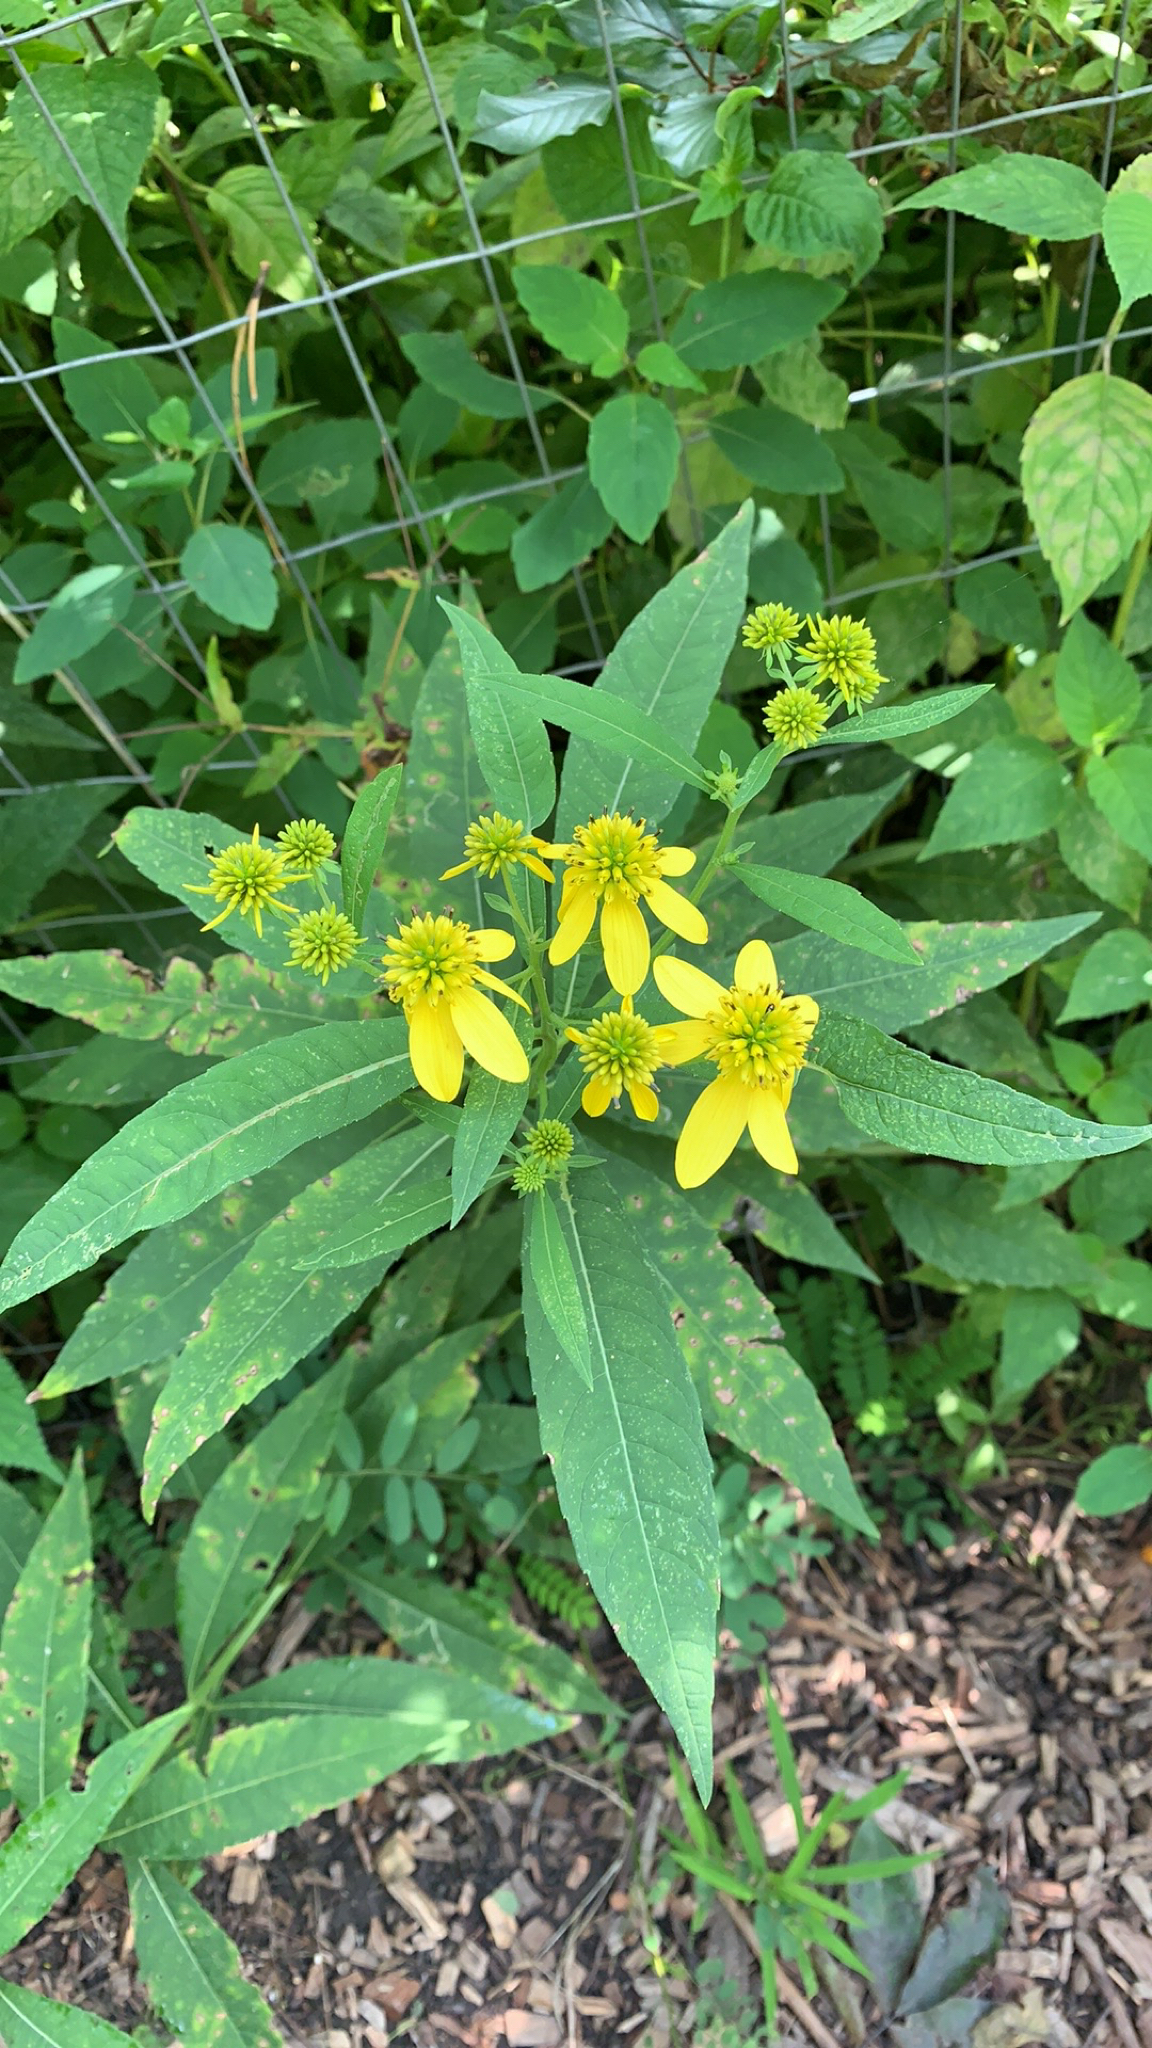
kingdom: Plantae
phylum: Tracheophyta
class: Magnoliopsida
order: Asterales
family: Asteraceae
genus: Verbesina
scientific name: Verbesina alternifolia
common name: Wingstem
